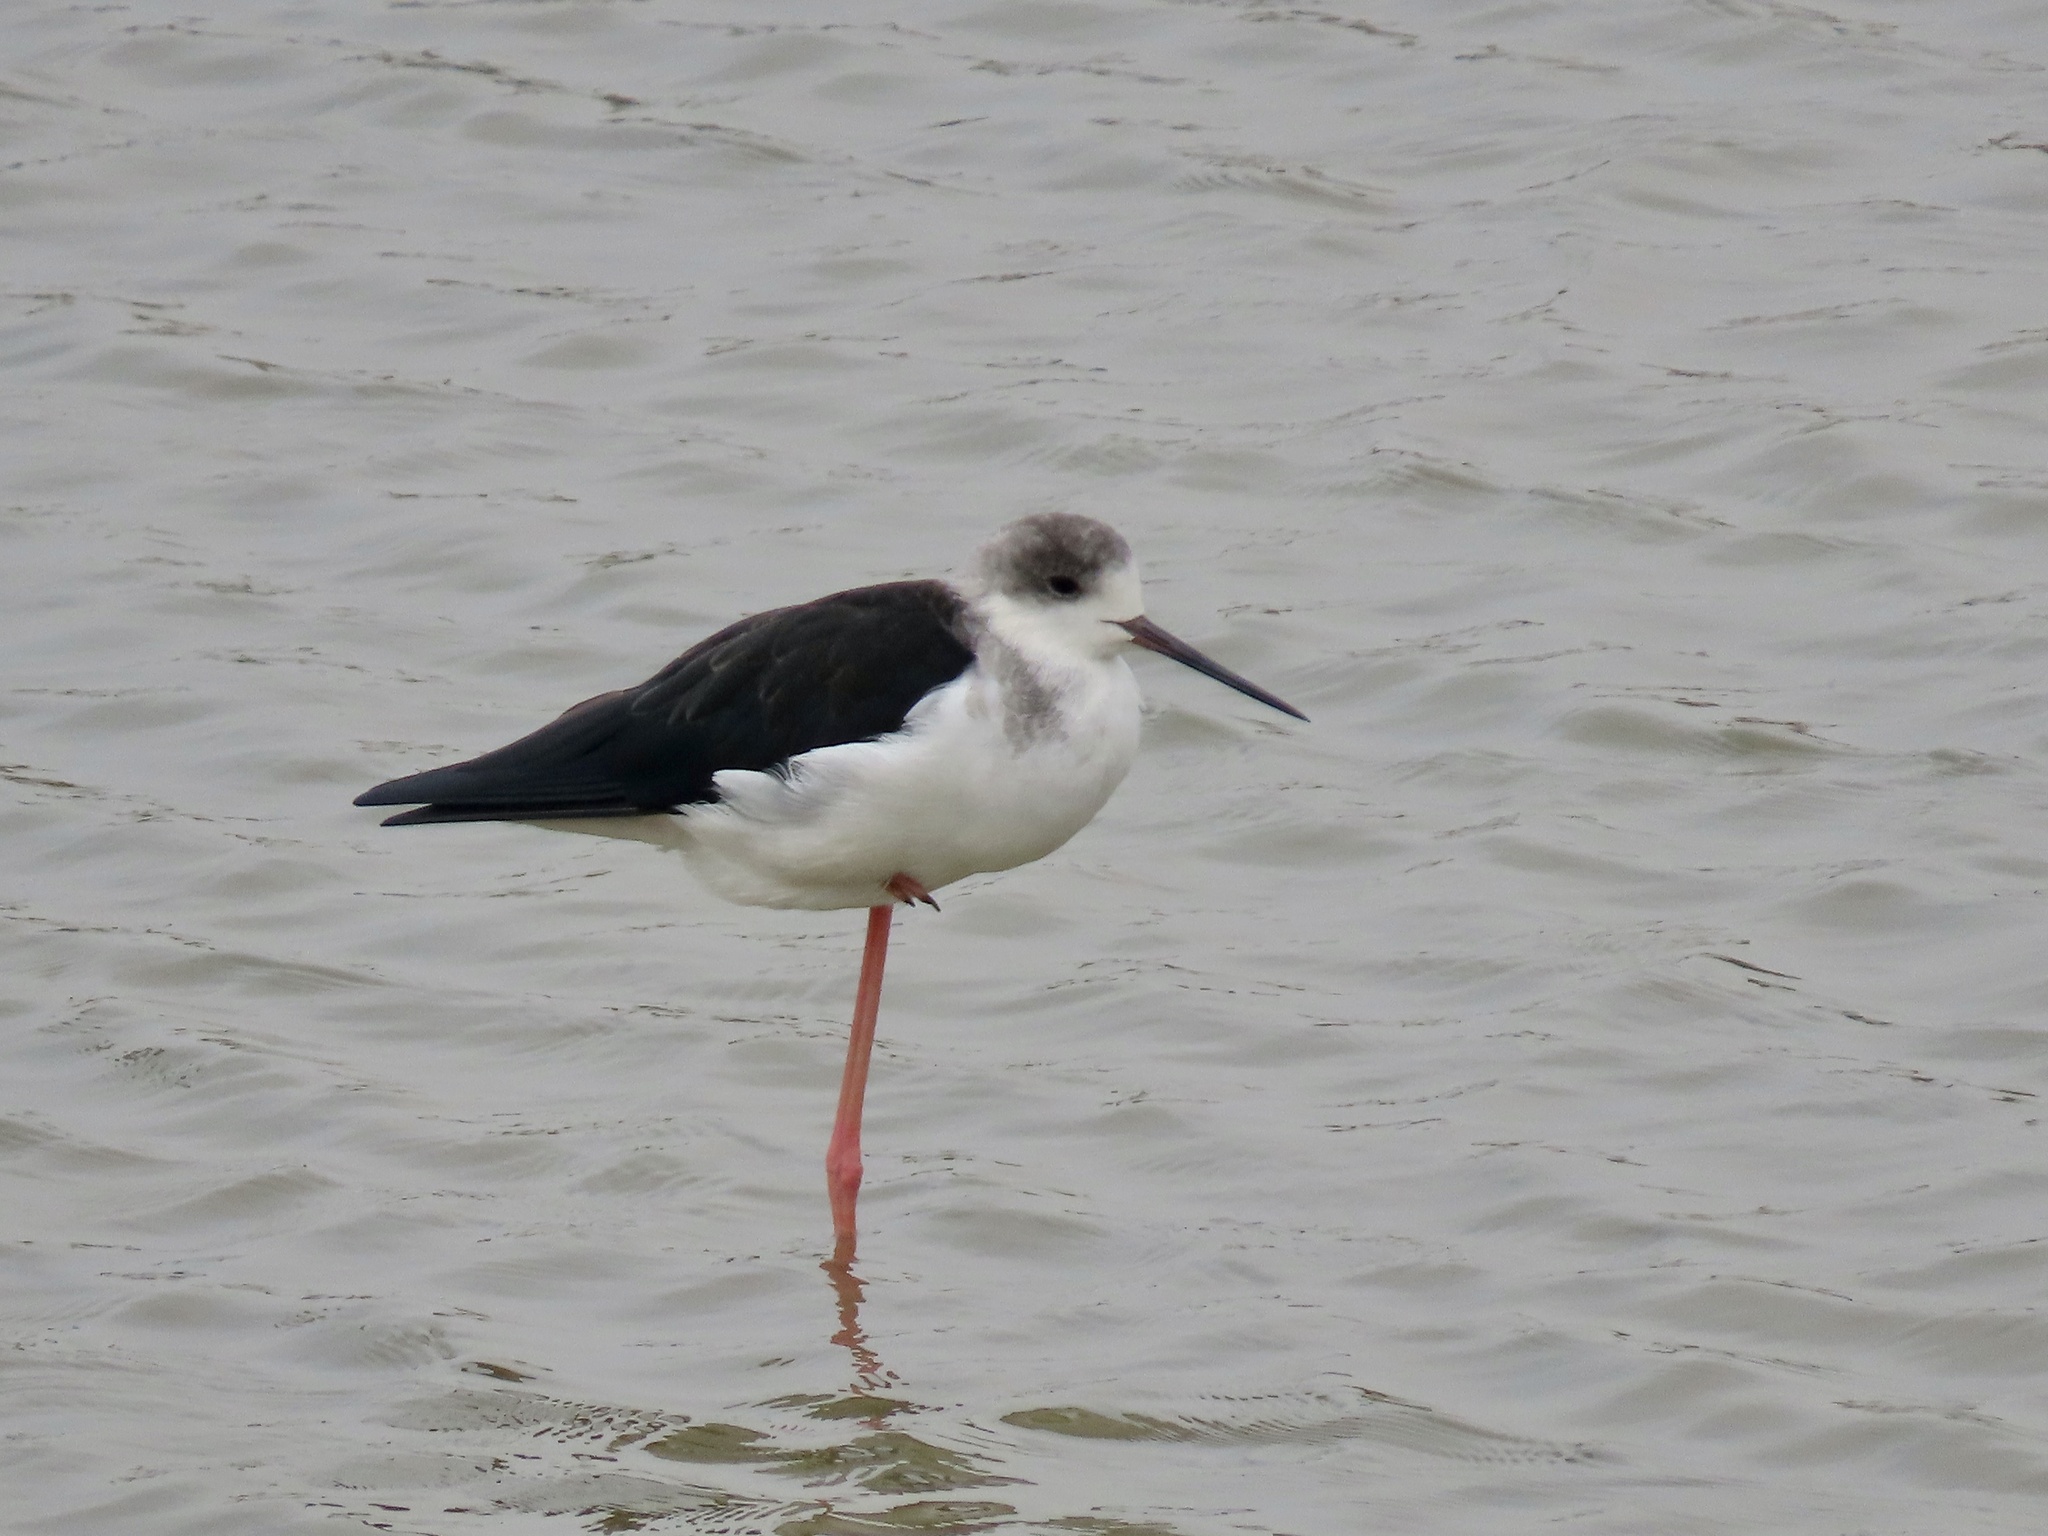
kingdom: Animalia
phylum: Chordata
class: Aves
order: Charadriiformes
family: Recurvirostridae
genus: Himantopus
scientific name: Himantopus himantopus
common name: Black-winged stilt
